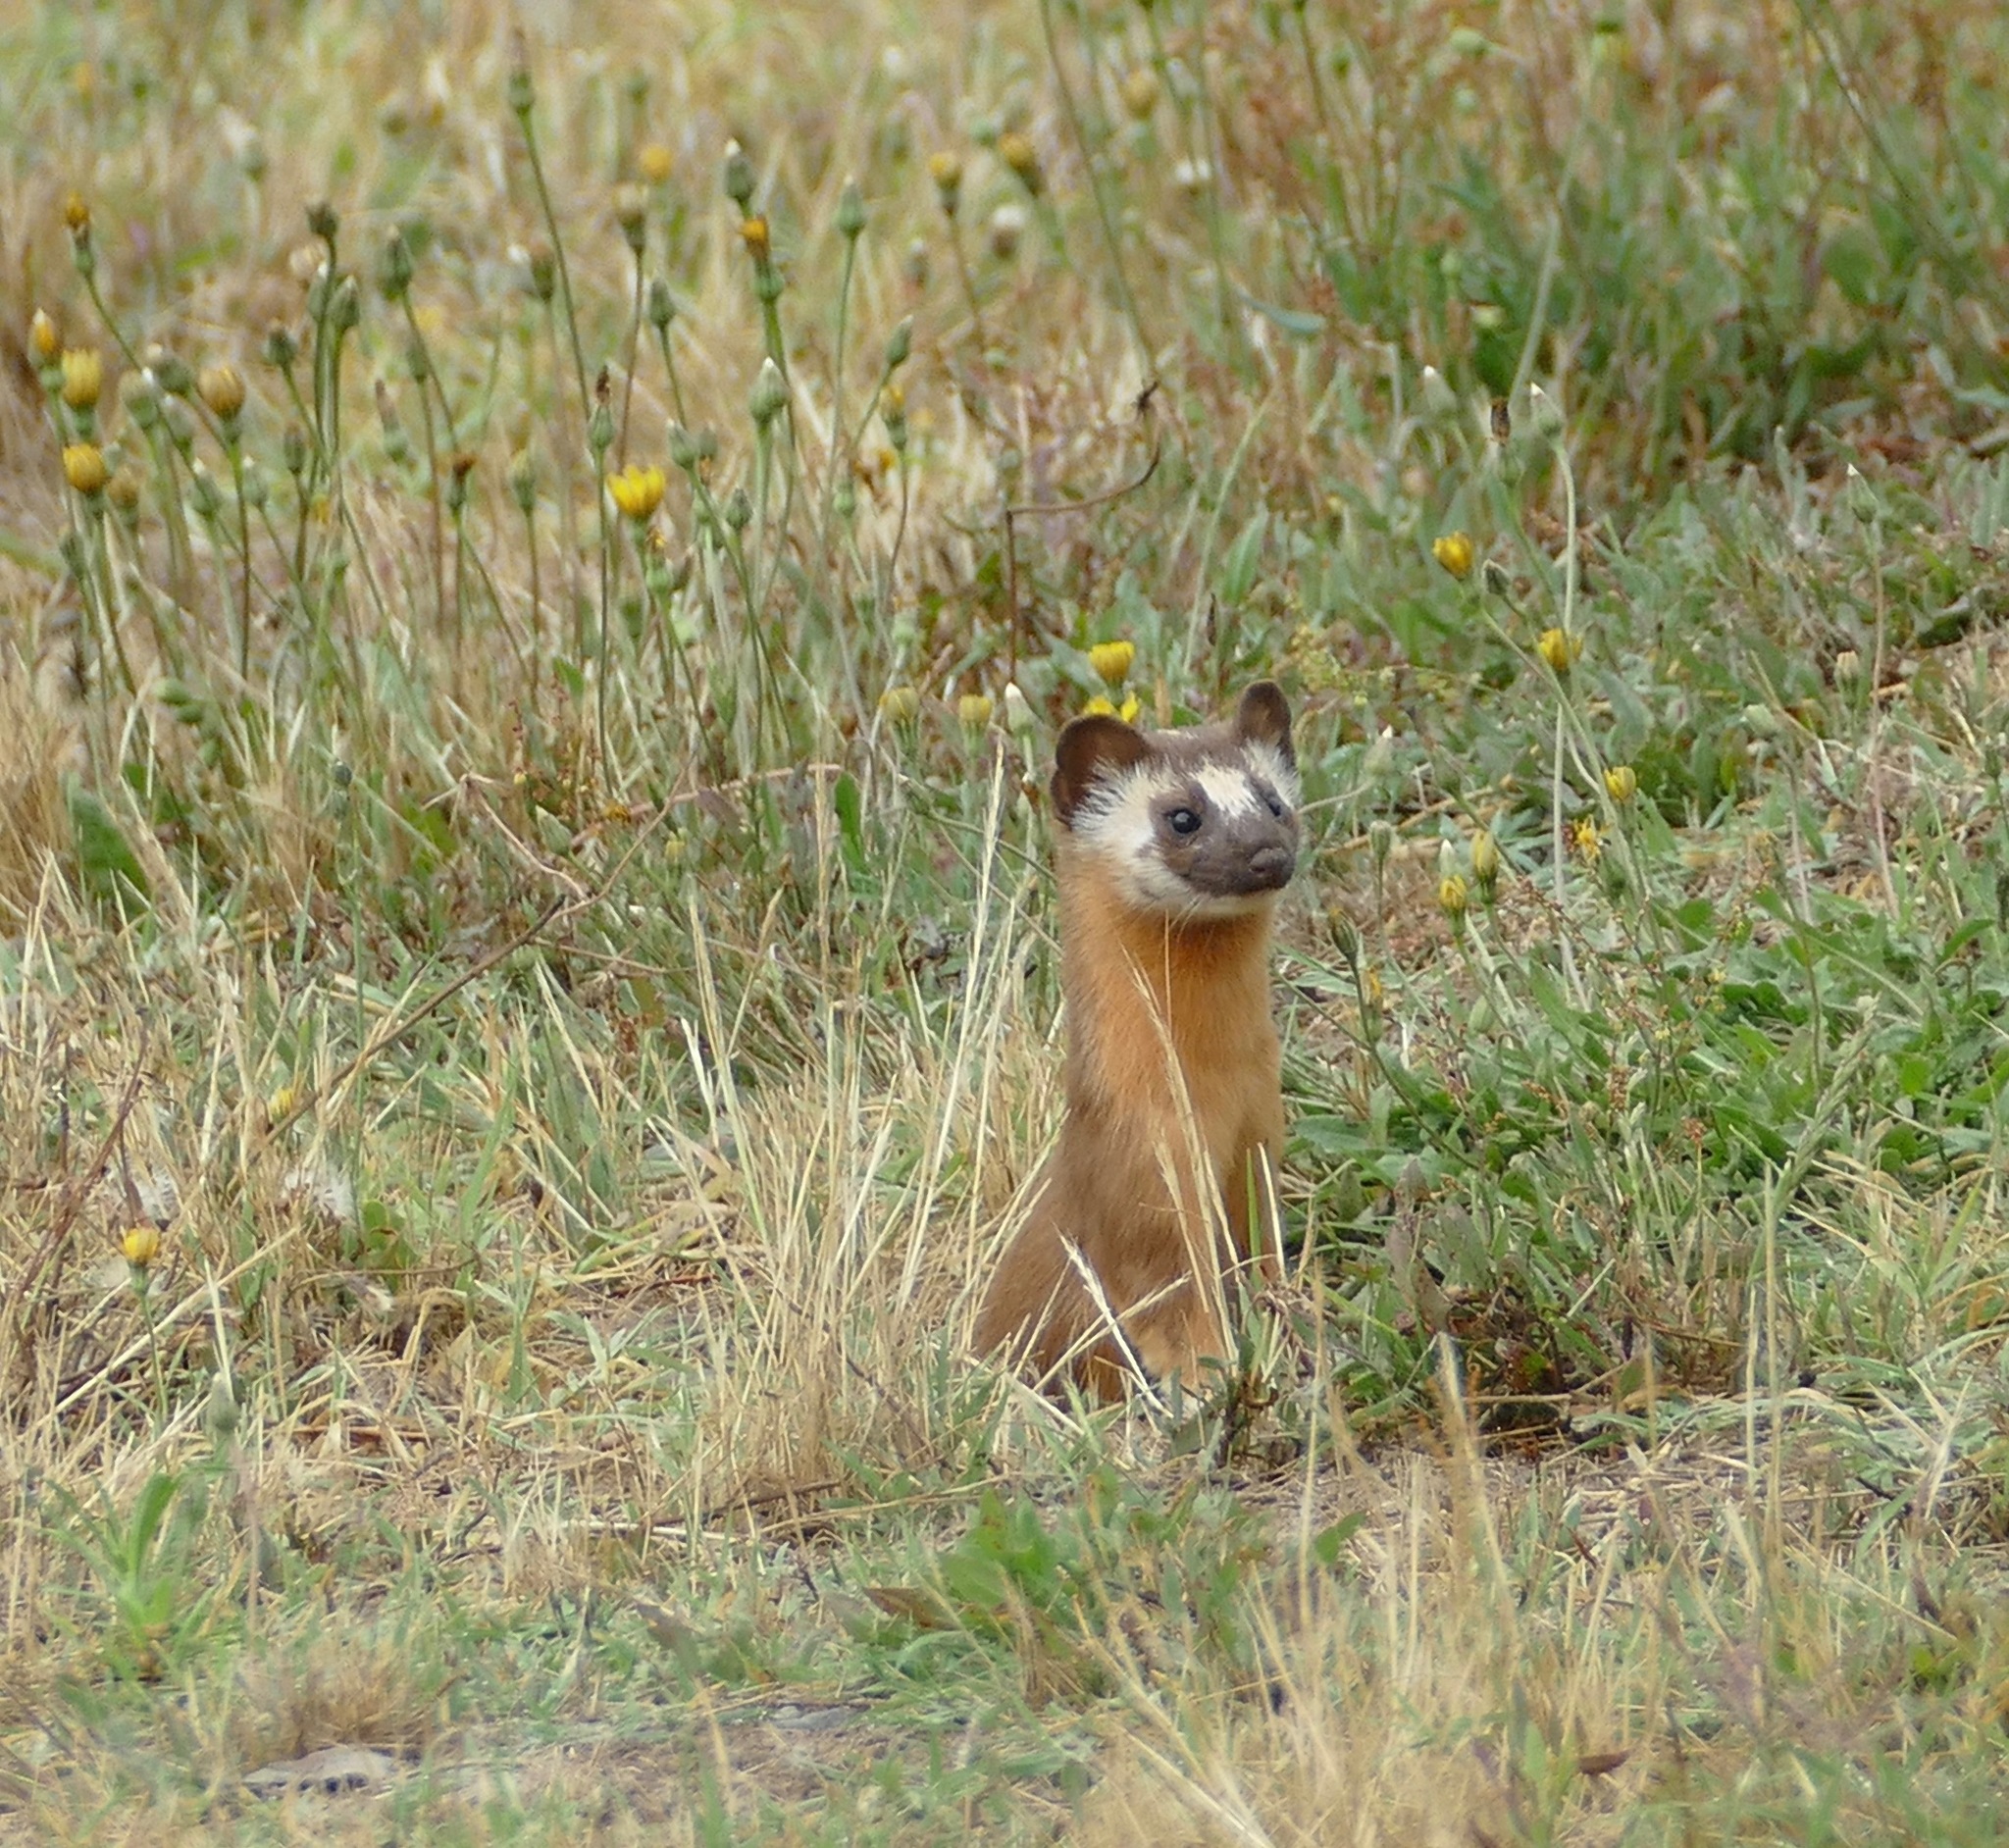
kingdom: Animalia
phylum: Chordata
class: Mammalia
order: Carnivora
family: Mustelidae
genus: Mustela
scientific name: Mustela
